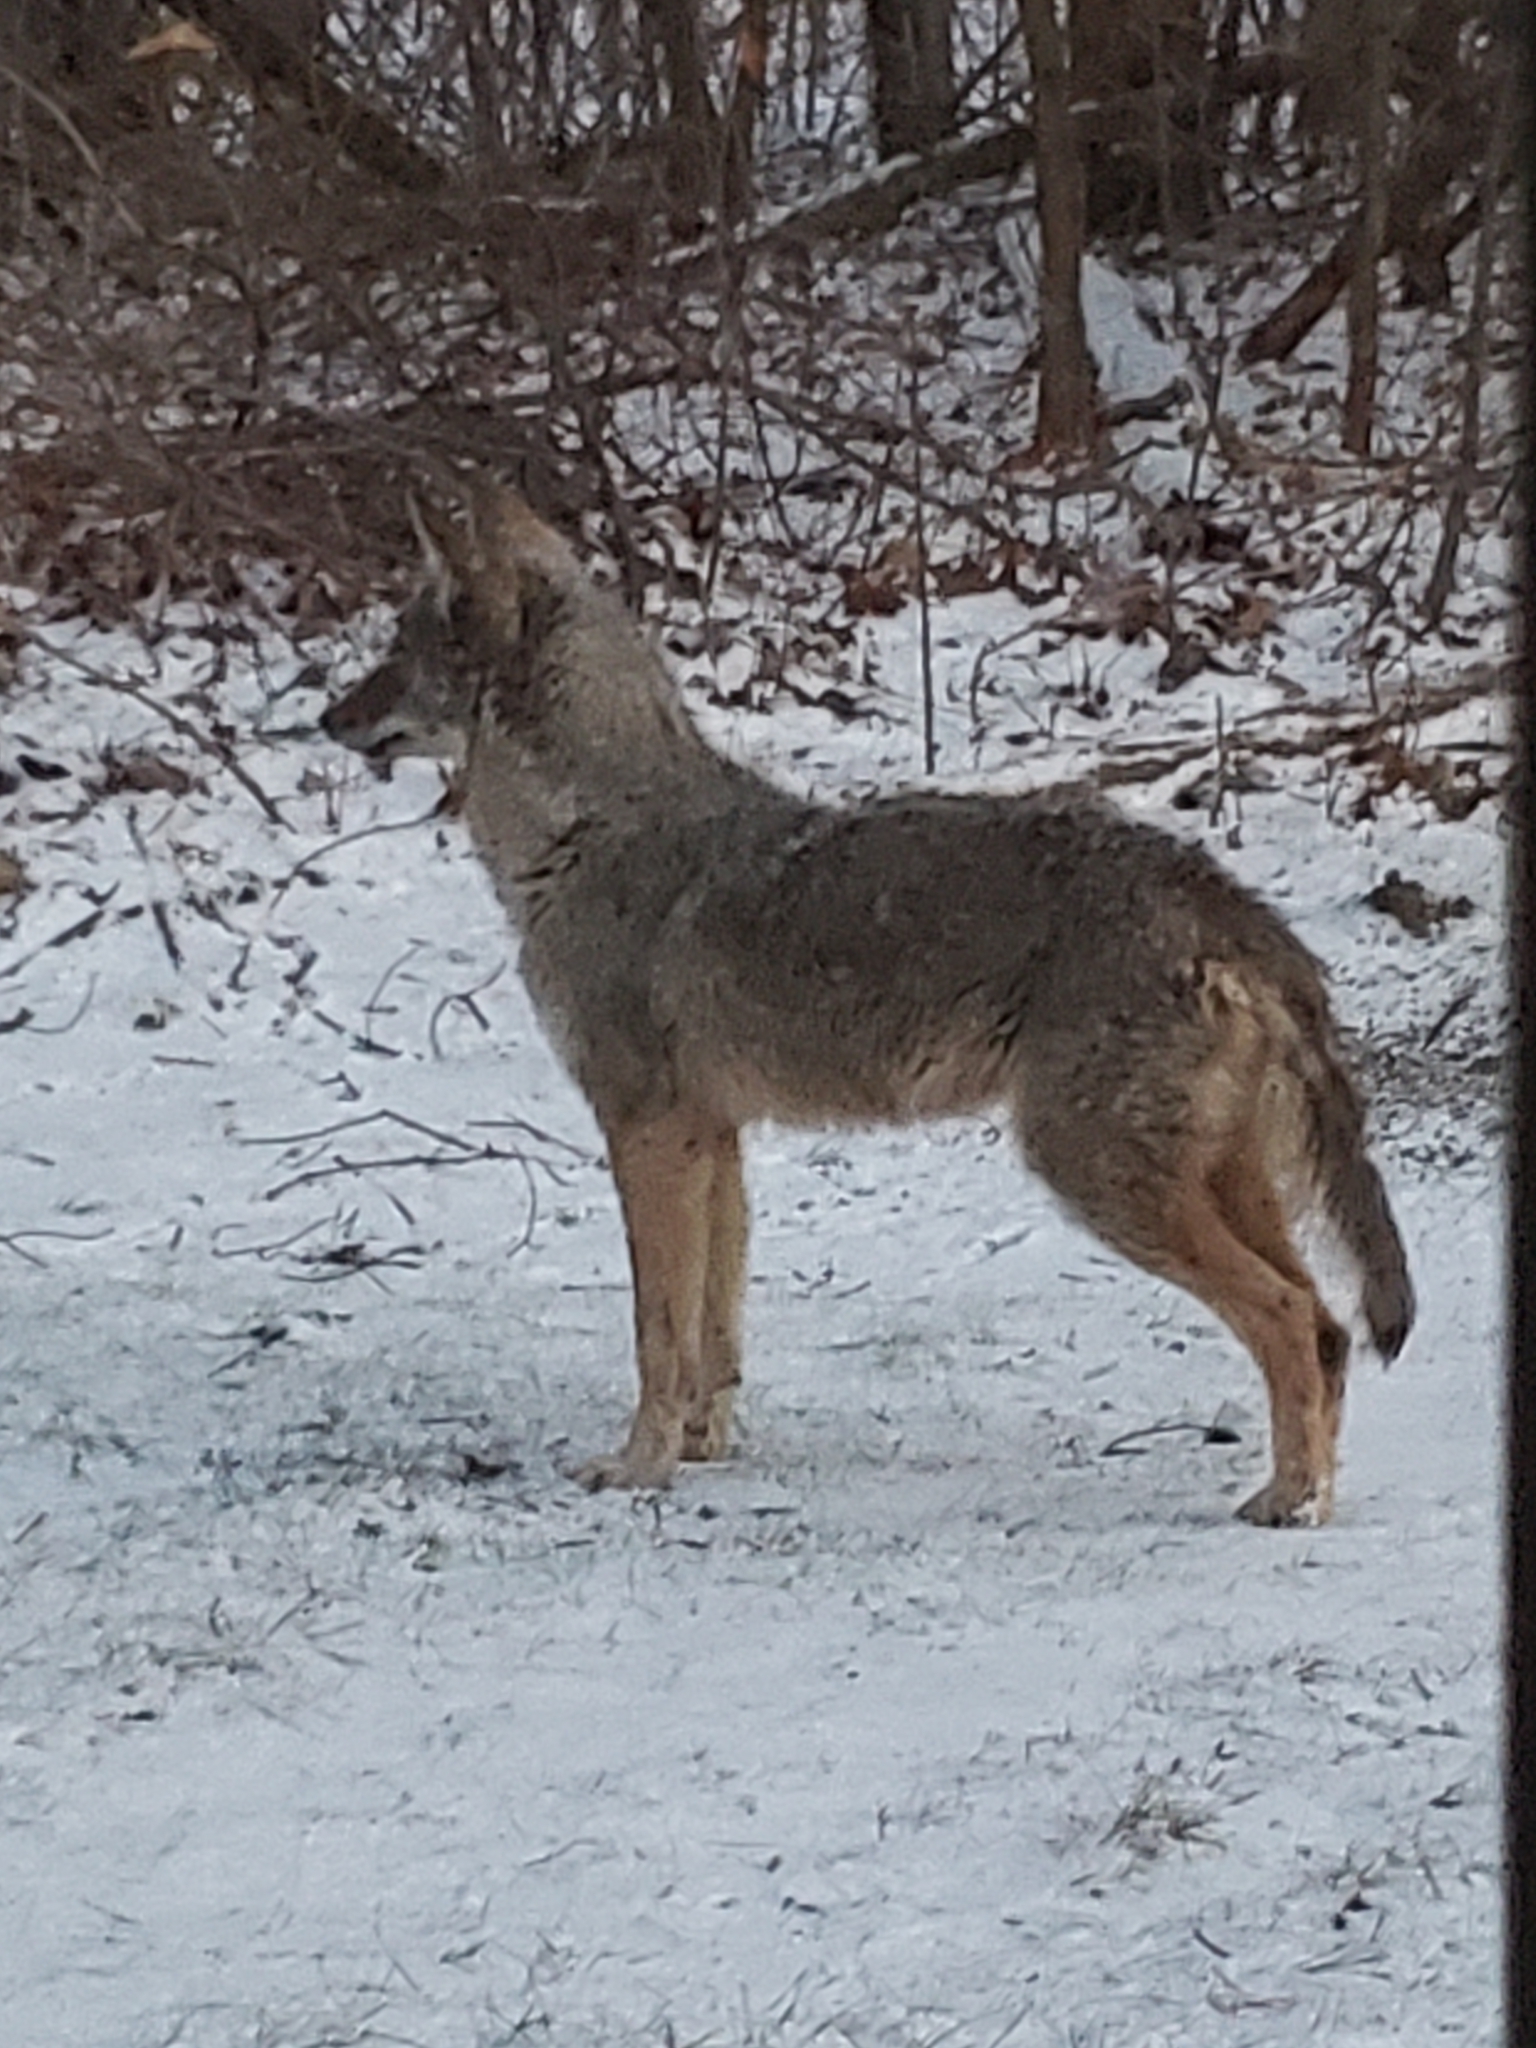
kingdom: Animalia
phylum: Chordata
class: Mammalia
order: Carnivora
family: Canidae
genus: Canis
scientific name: Canis latrans
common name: Coyote
